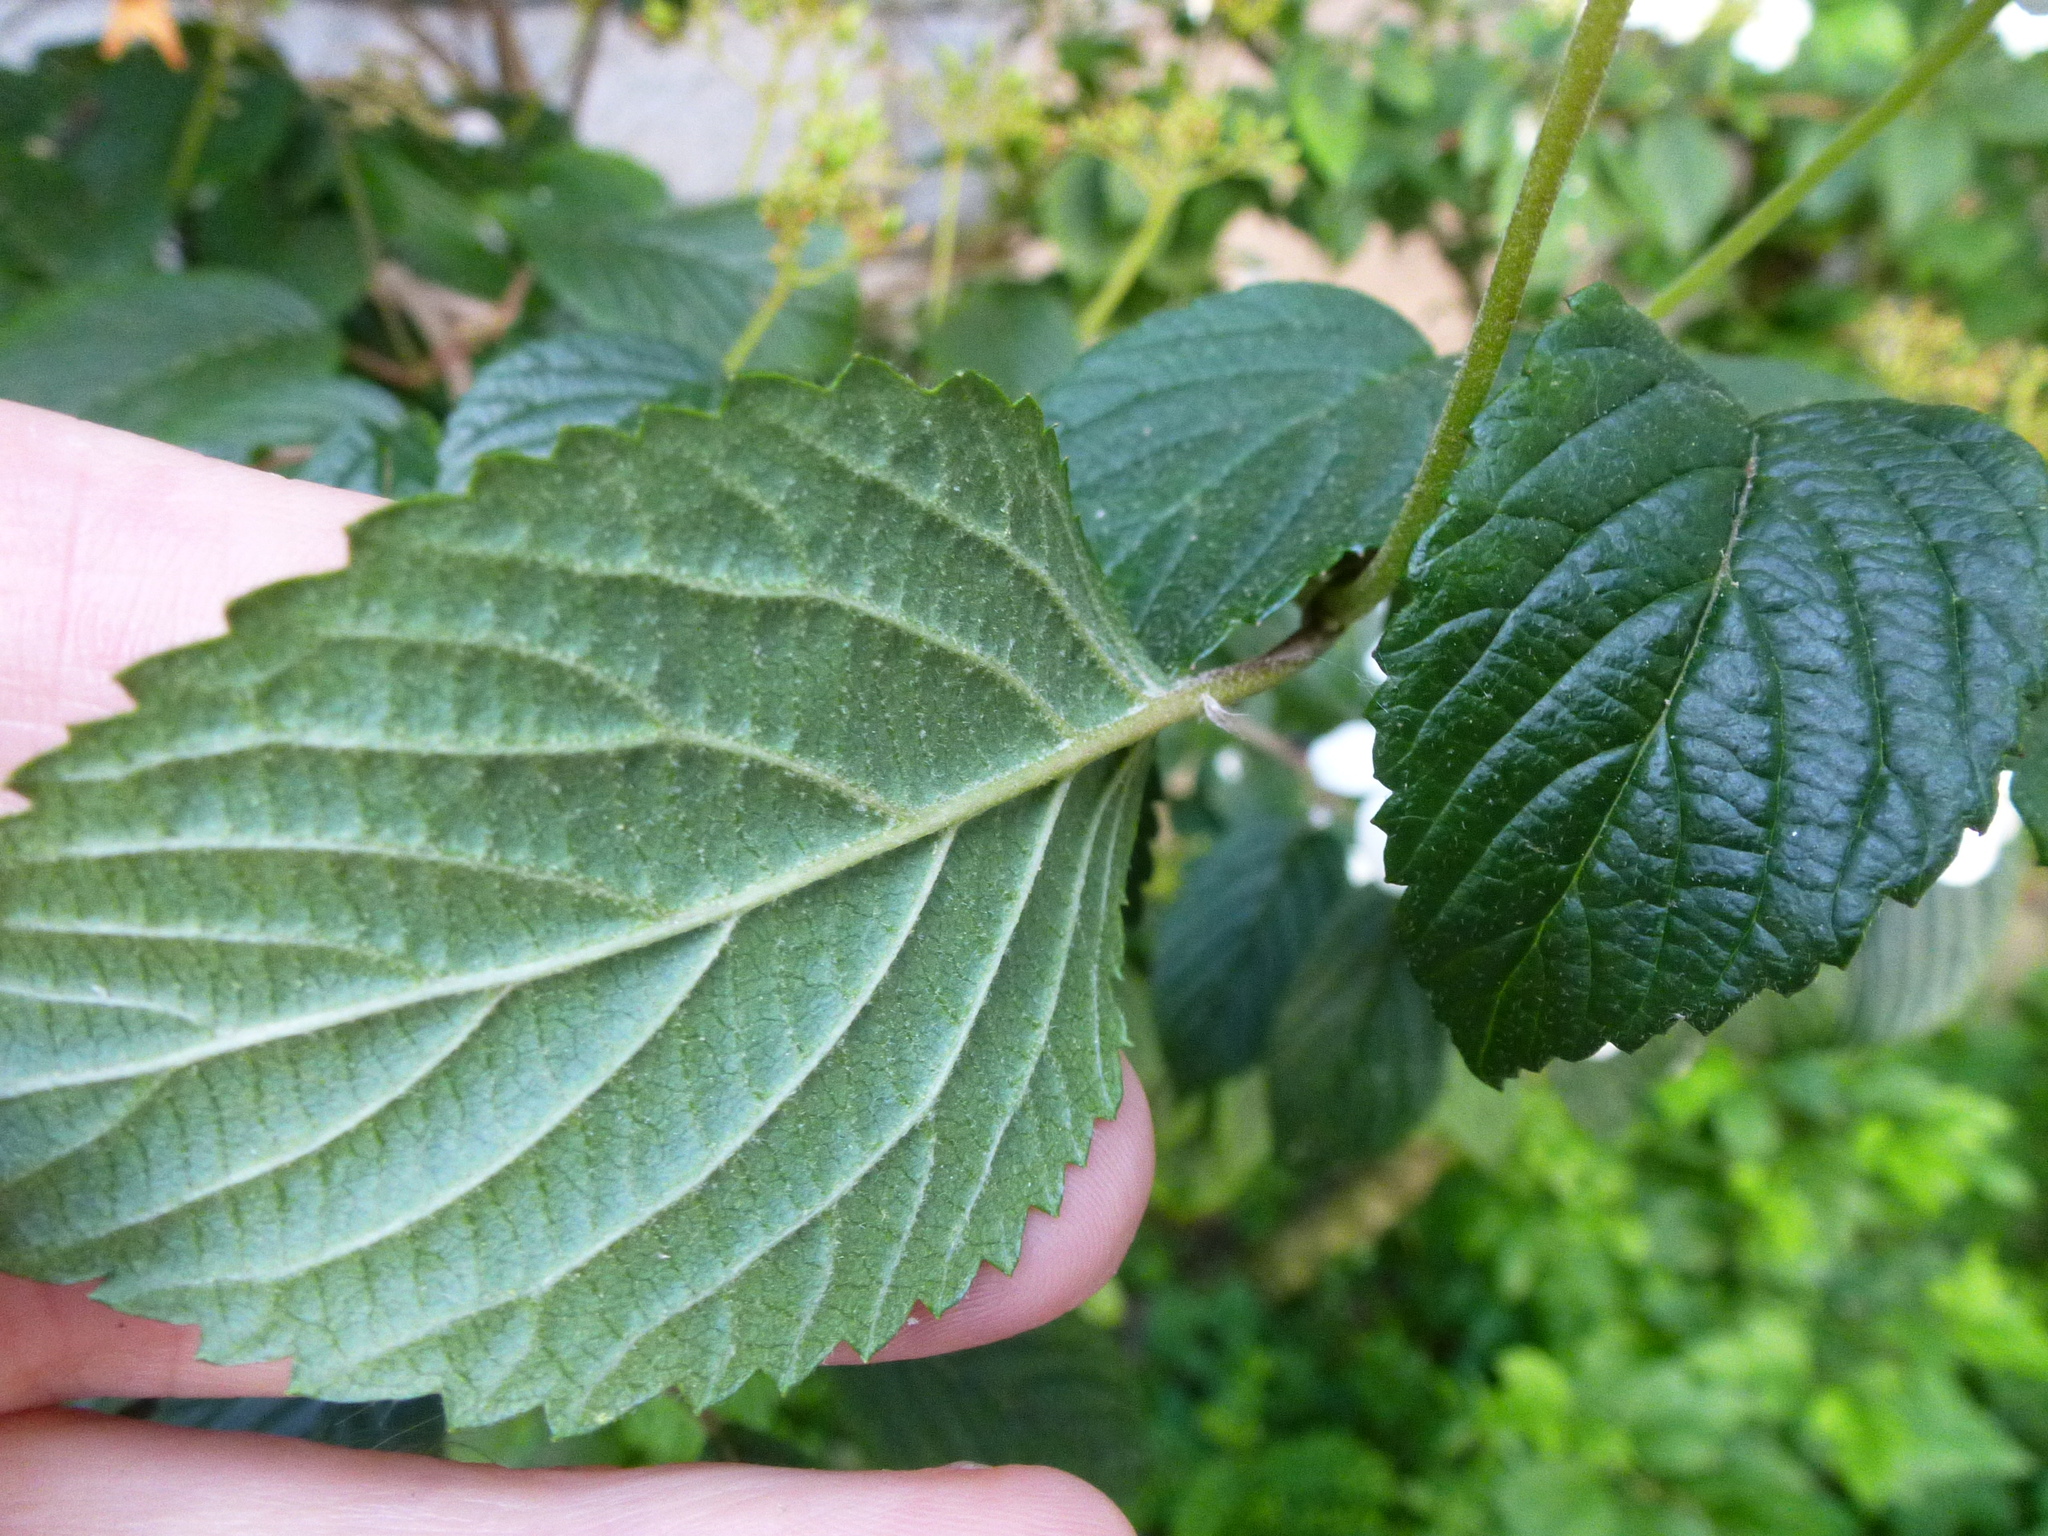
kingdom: Plantae
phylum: Tracheophyta
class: Magnoliopsida
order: Dipsacales
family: Viburnaceae
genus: Viburnum
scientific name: Viburnum plicatum
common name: Japanese snowball
